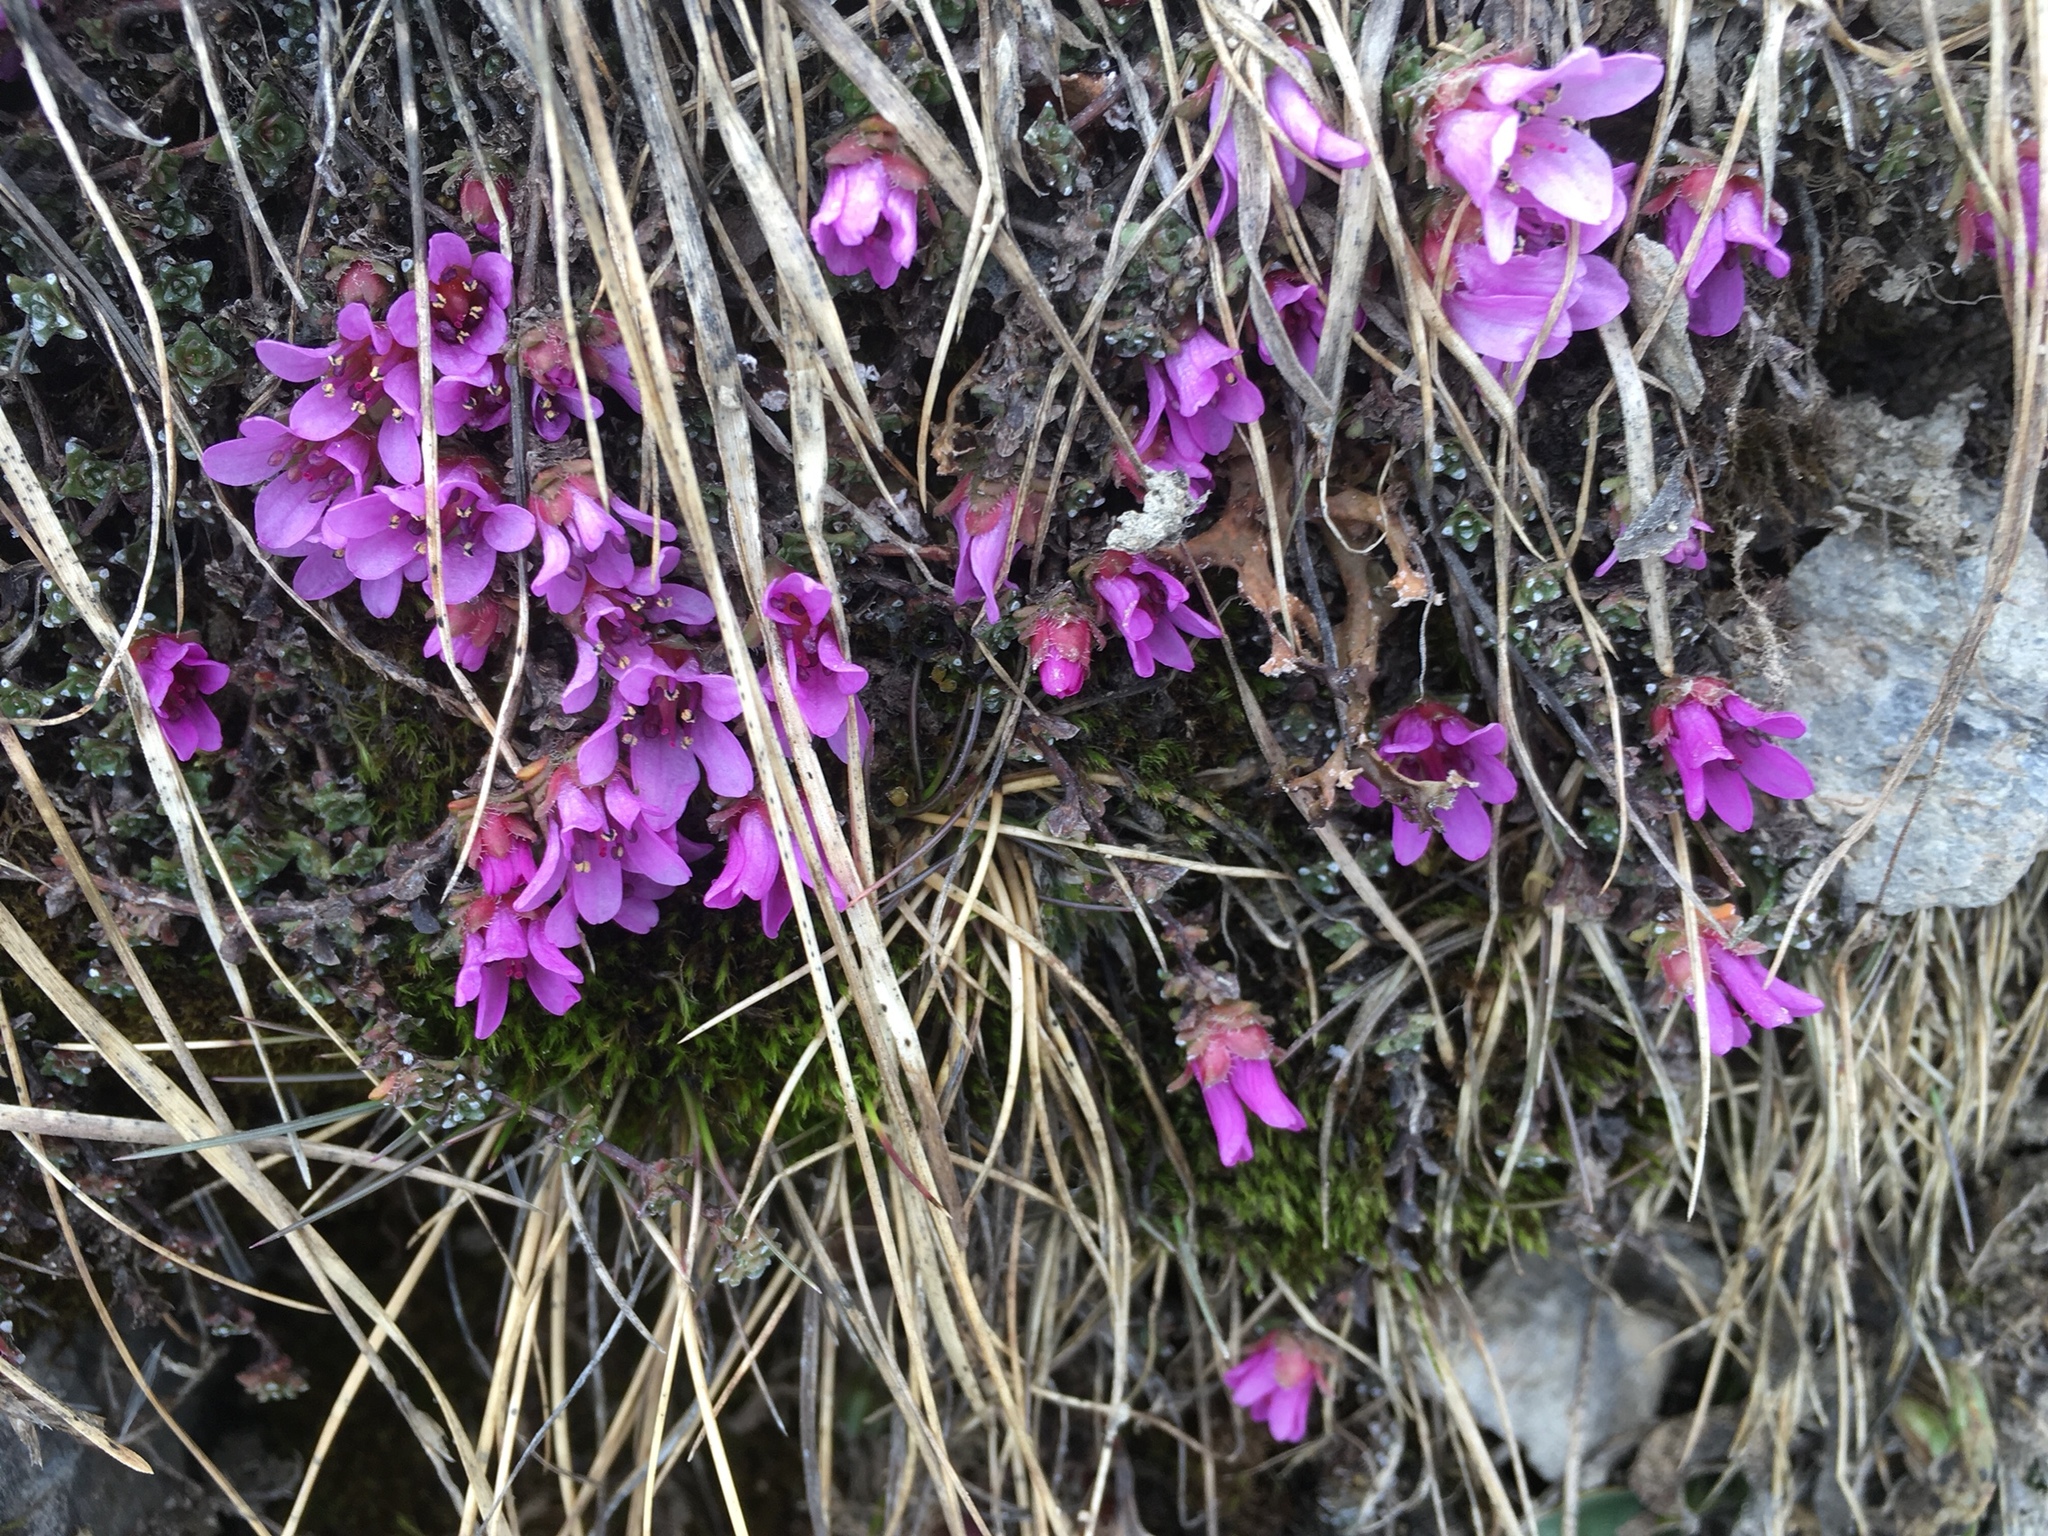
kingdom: Plantae
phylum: Tracheophyta
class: Magnoliopsida
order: Saxifragales
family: Saxifragaceae
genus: Saxifraga
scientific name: Saxifraga oppositifolia
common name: Purple saxifrage
